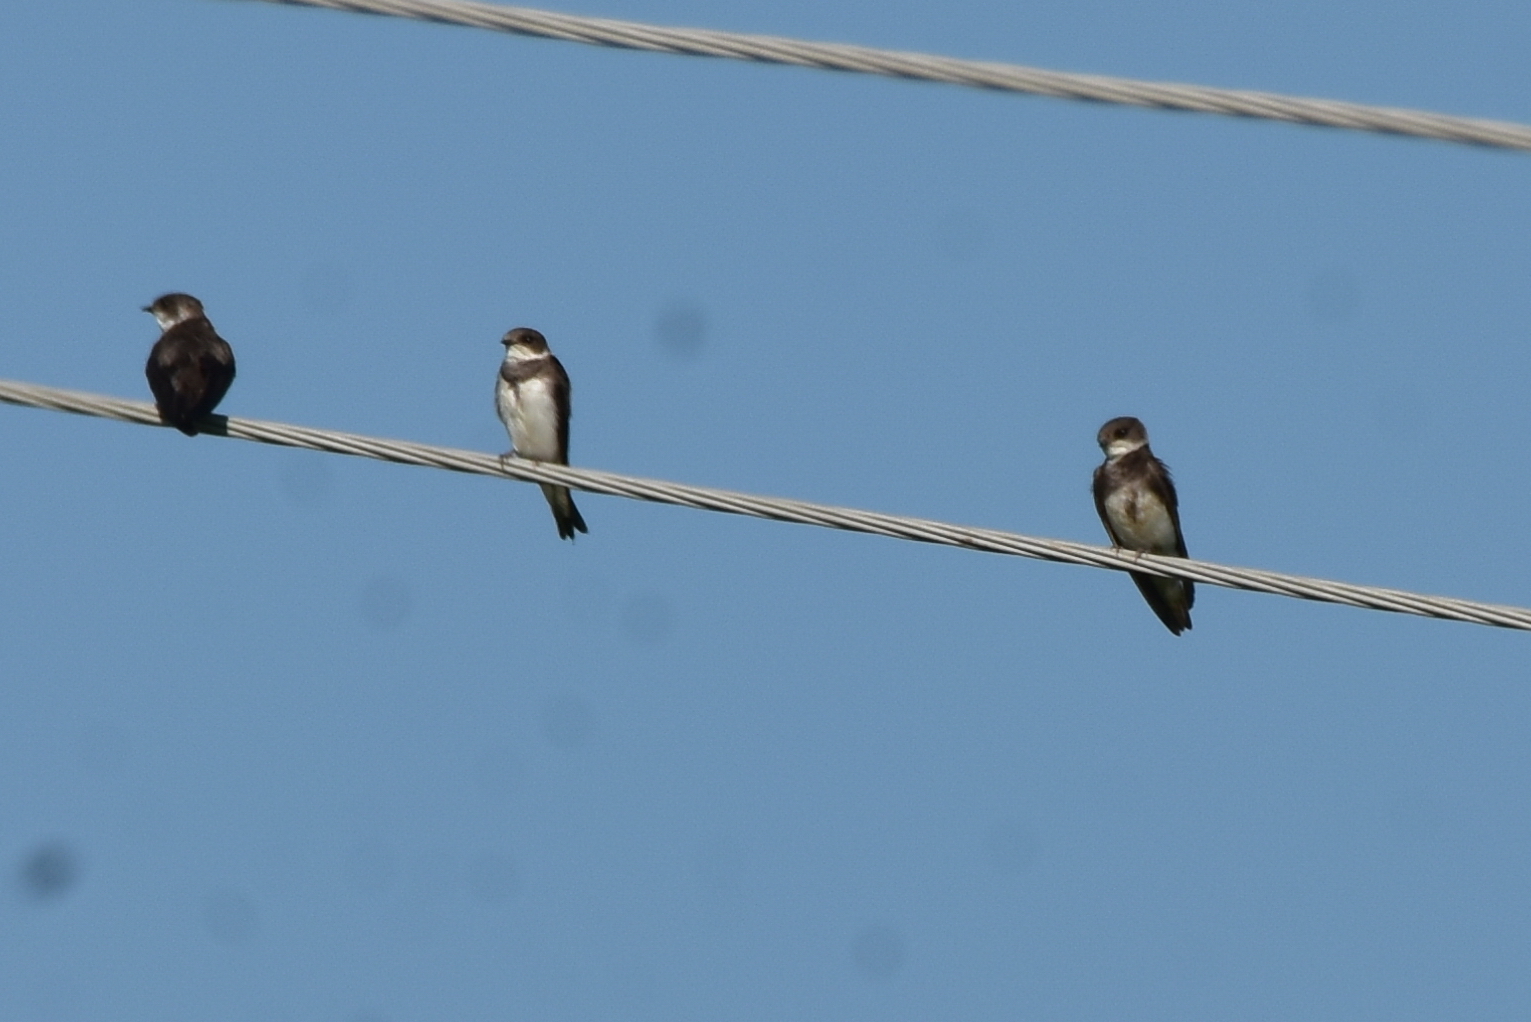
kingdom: Animalia
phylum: Chordata
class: Aves
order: Passeriformes
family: Hirundinidae
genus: Riparia
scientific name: Riparia riparia
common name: Sand martin
